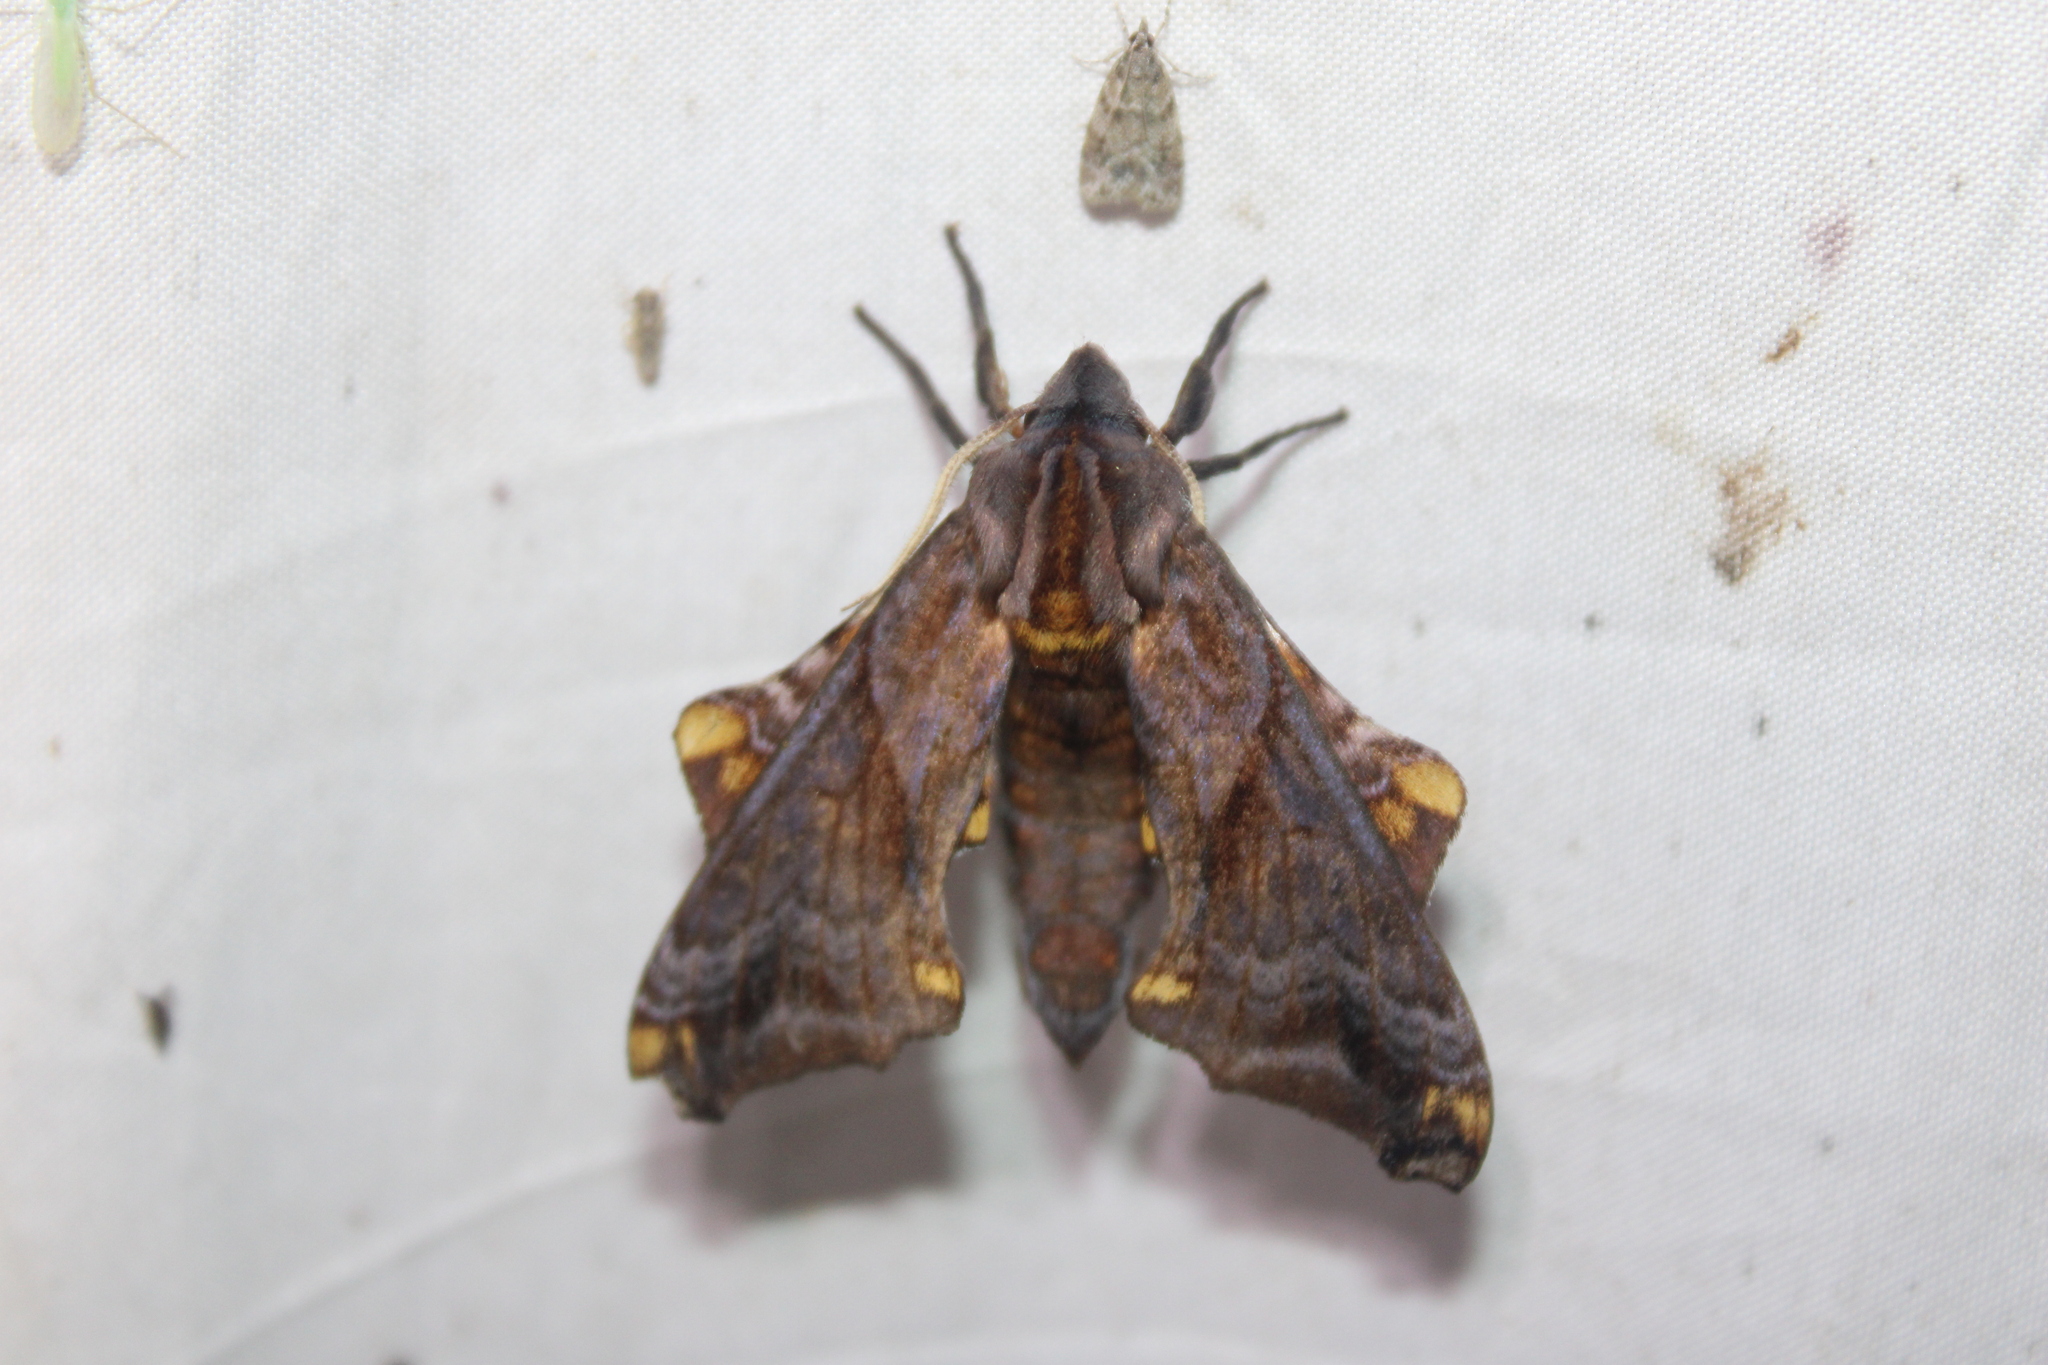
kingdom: Animalia
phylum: Arthropoda
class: Insecta
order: Lepidoptera
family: Sphingidae
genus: Paonias
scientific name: Paonias myops
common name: Small-eyed sphinx
